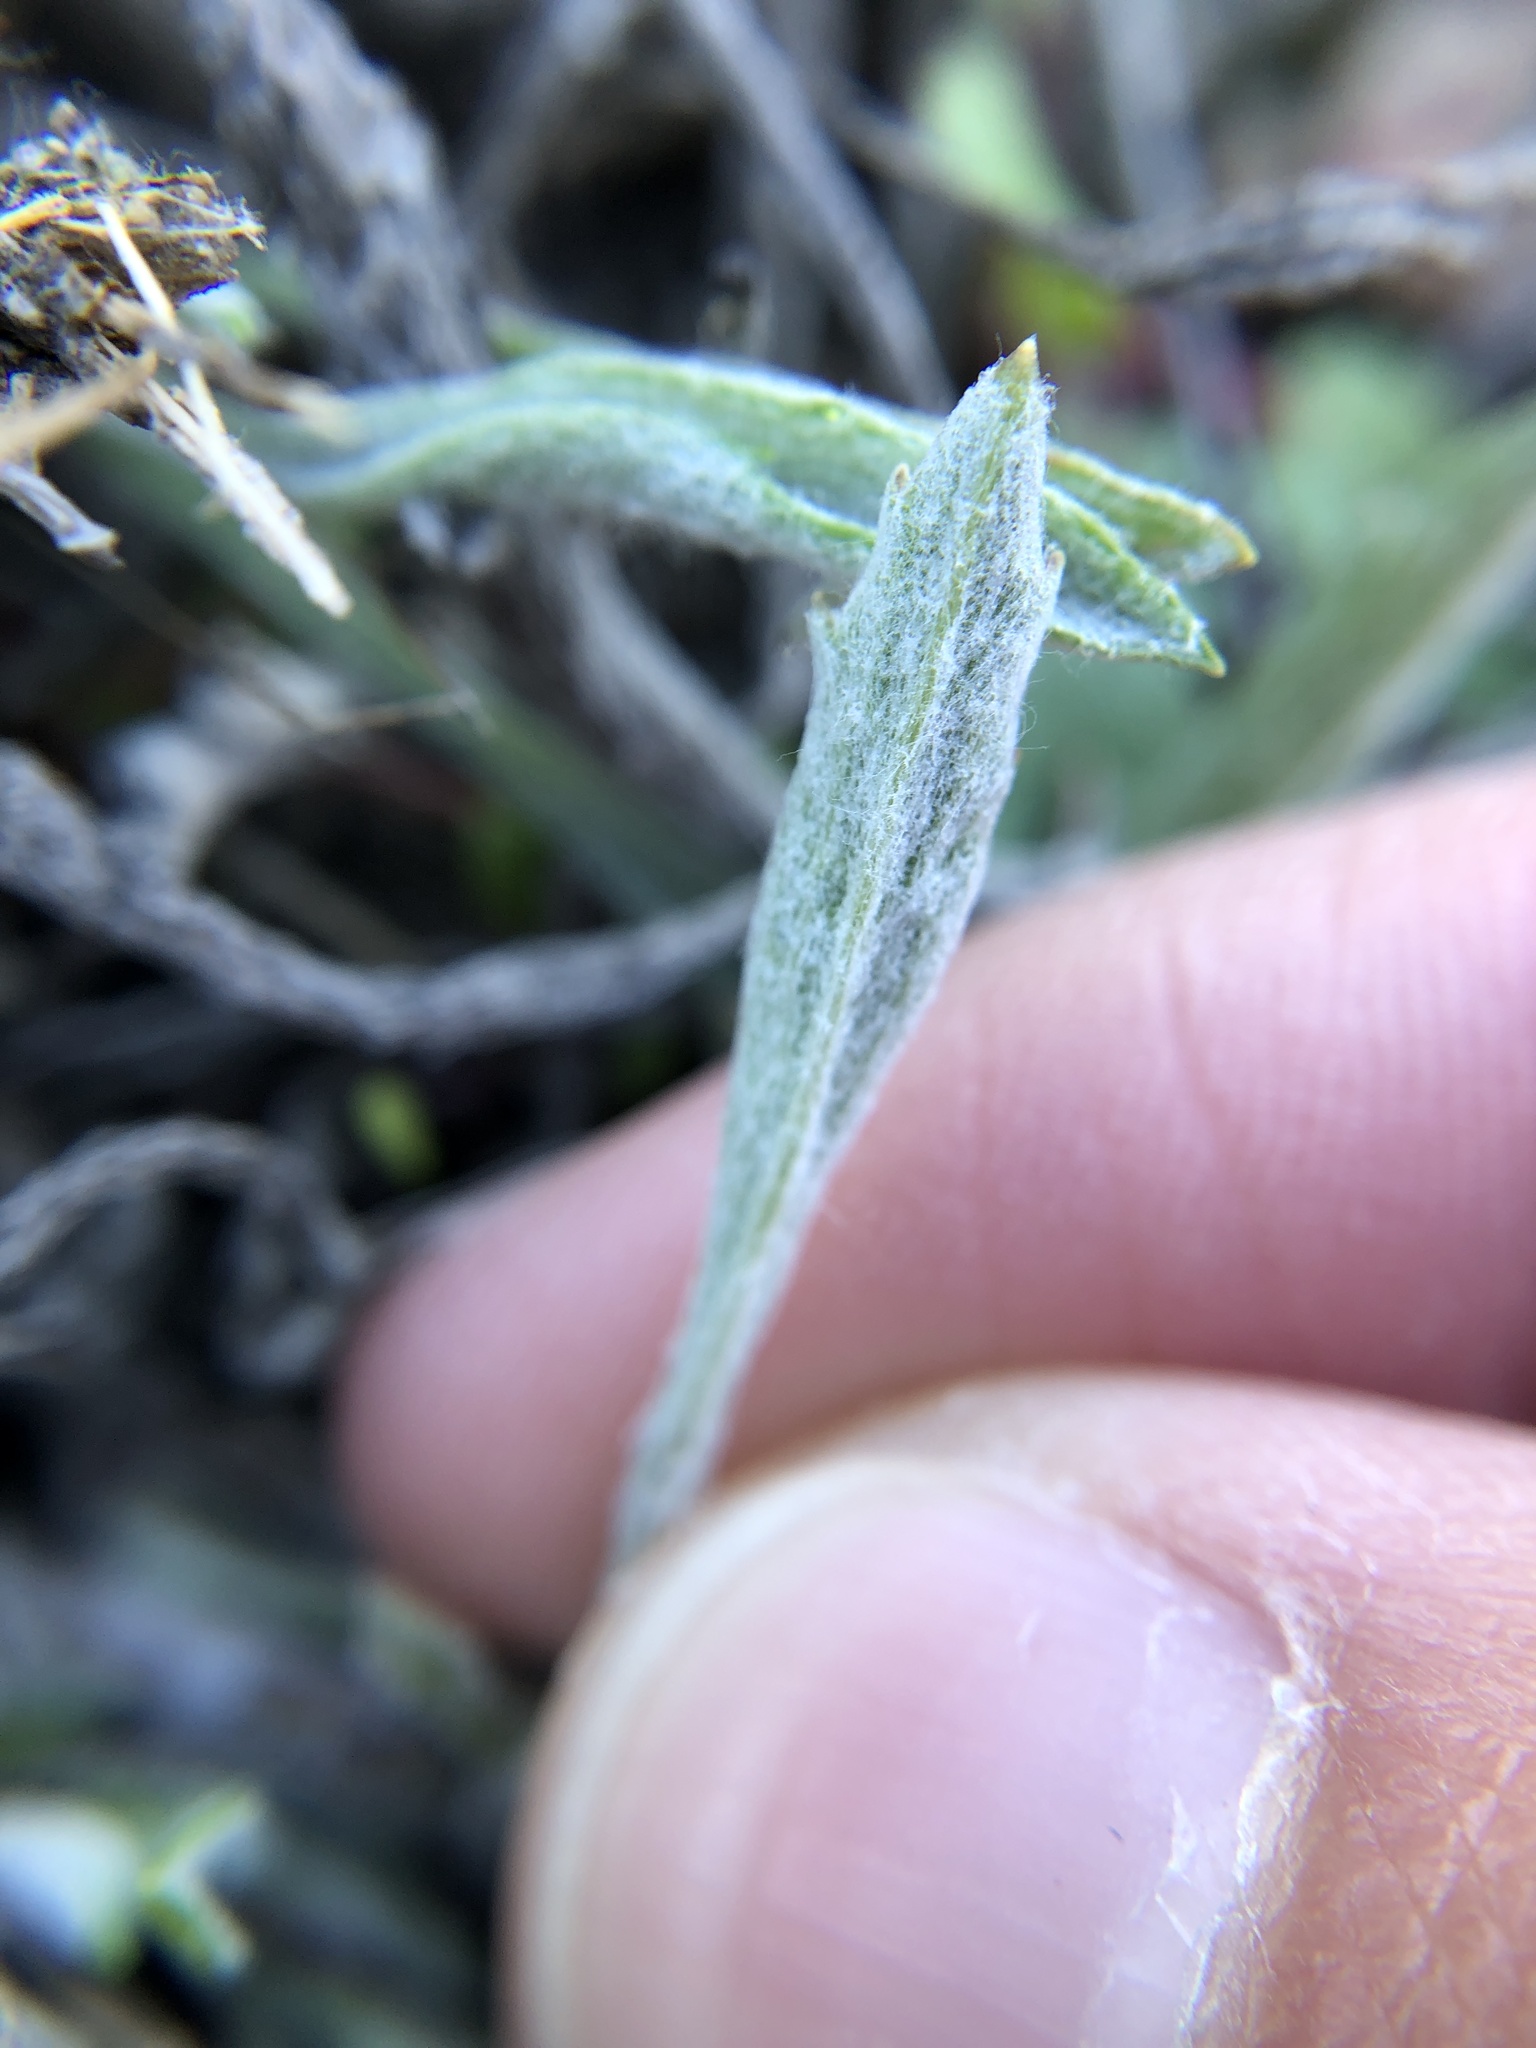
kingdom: Plantae
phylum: Tracheophyta
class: Magnoliopsida
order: Asterales
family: Asteraceae
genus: Corethrogyne
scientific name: Corethrogyne filaginifolia
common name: Sand-aster
